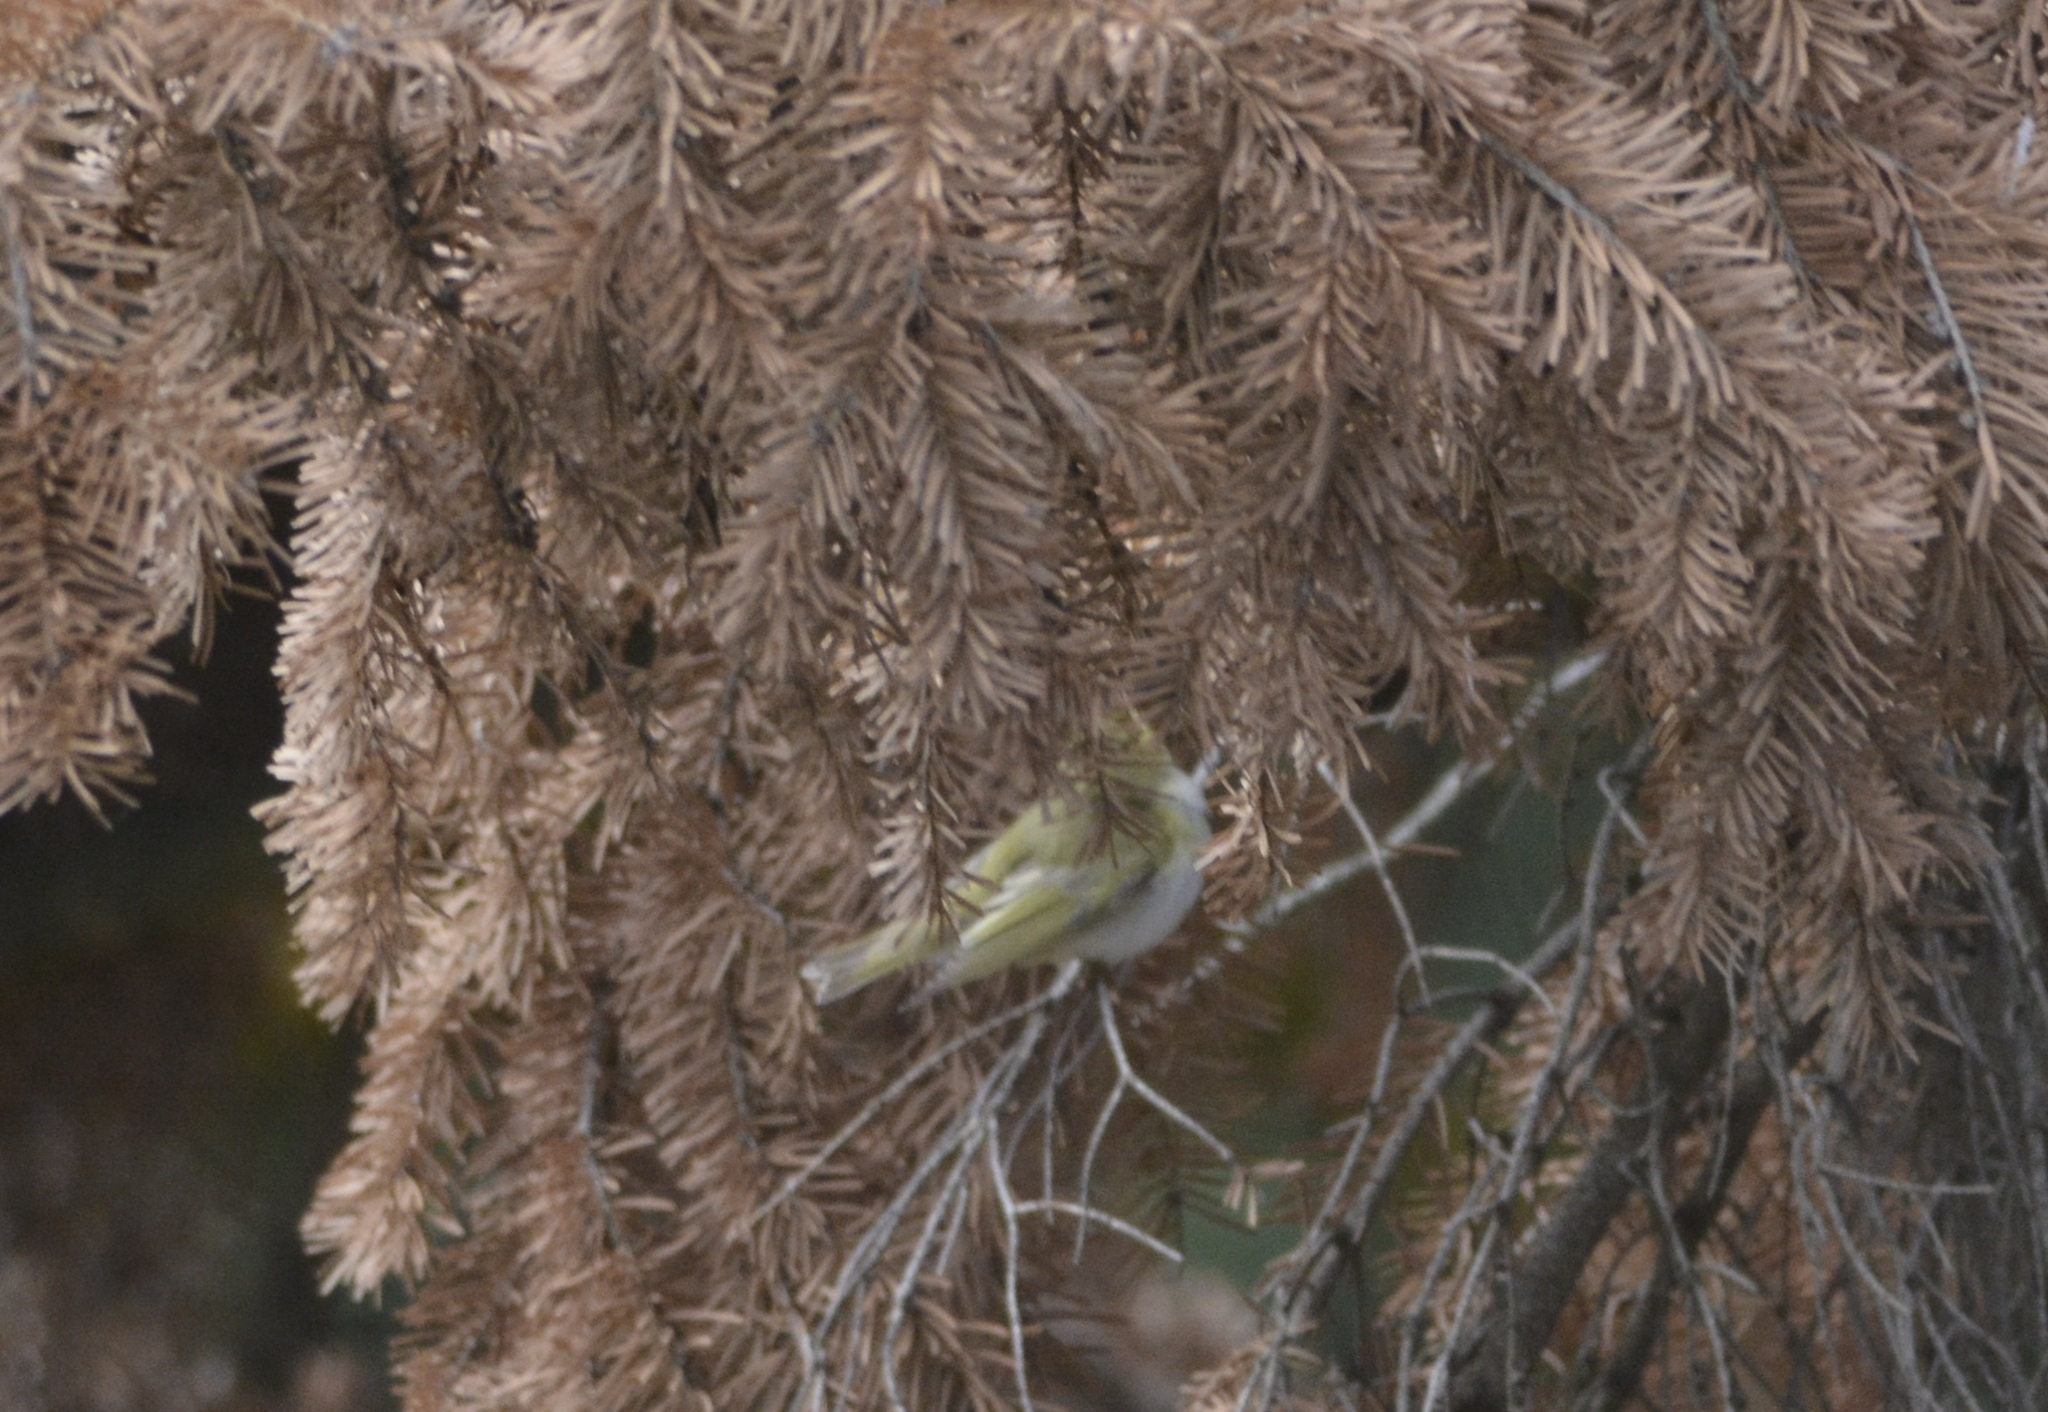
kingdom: Animalia
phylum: Chordata
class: Aves
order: Passeriformes
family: Phylloscopidae
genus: Phylloscopus
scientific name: Phylloscopus sibillatrix
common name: Wood warbler
